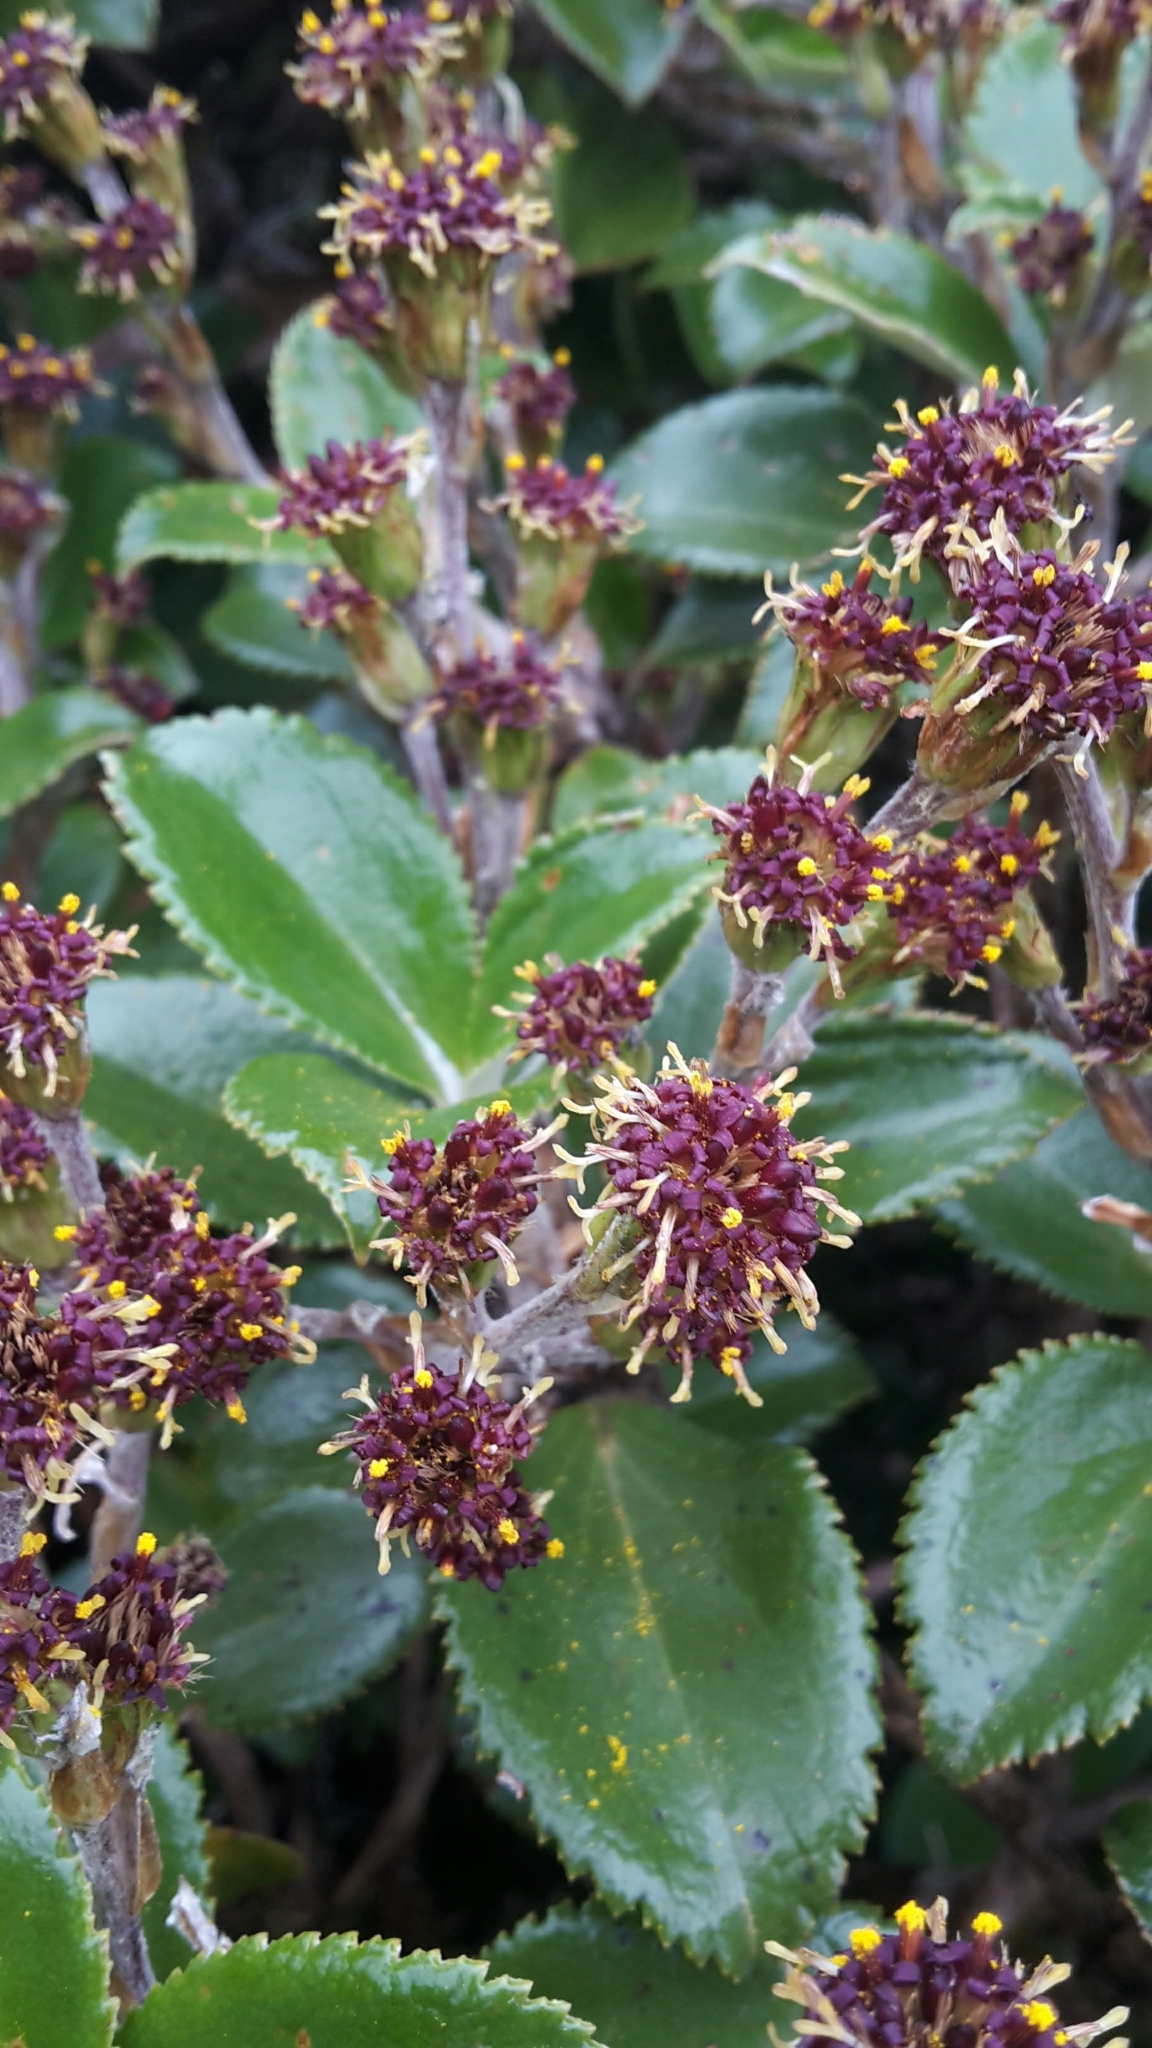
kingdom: Plantae
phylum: Tracheophyta
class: Magnoliopsida
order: Asterales
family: Asteraceae
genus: Macrolearia
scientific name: Macrolearia colensoi
